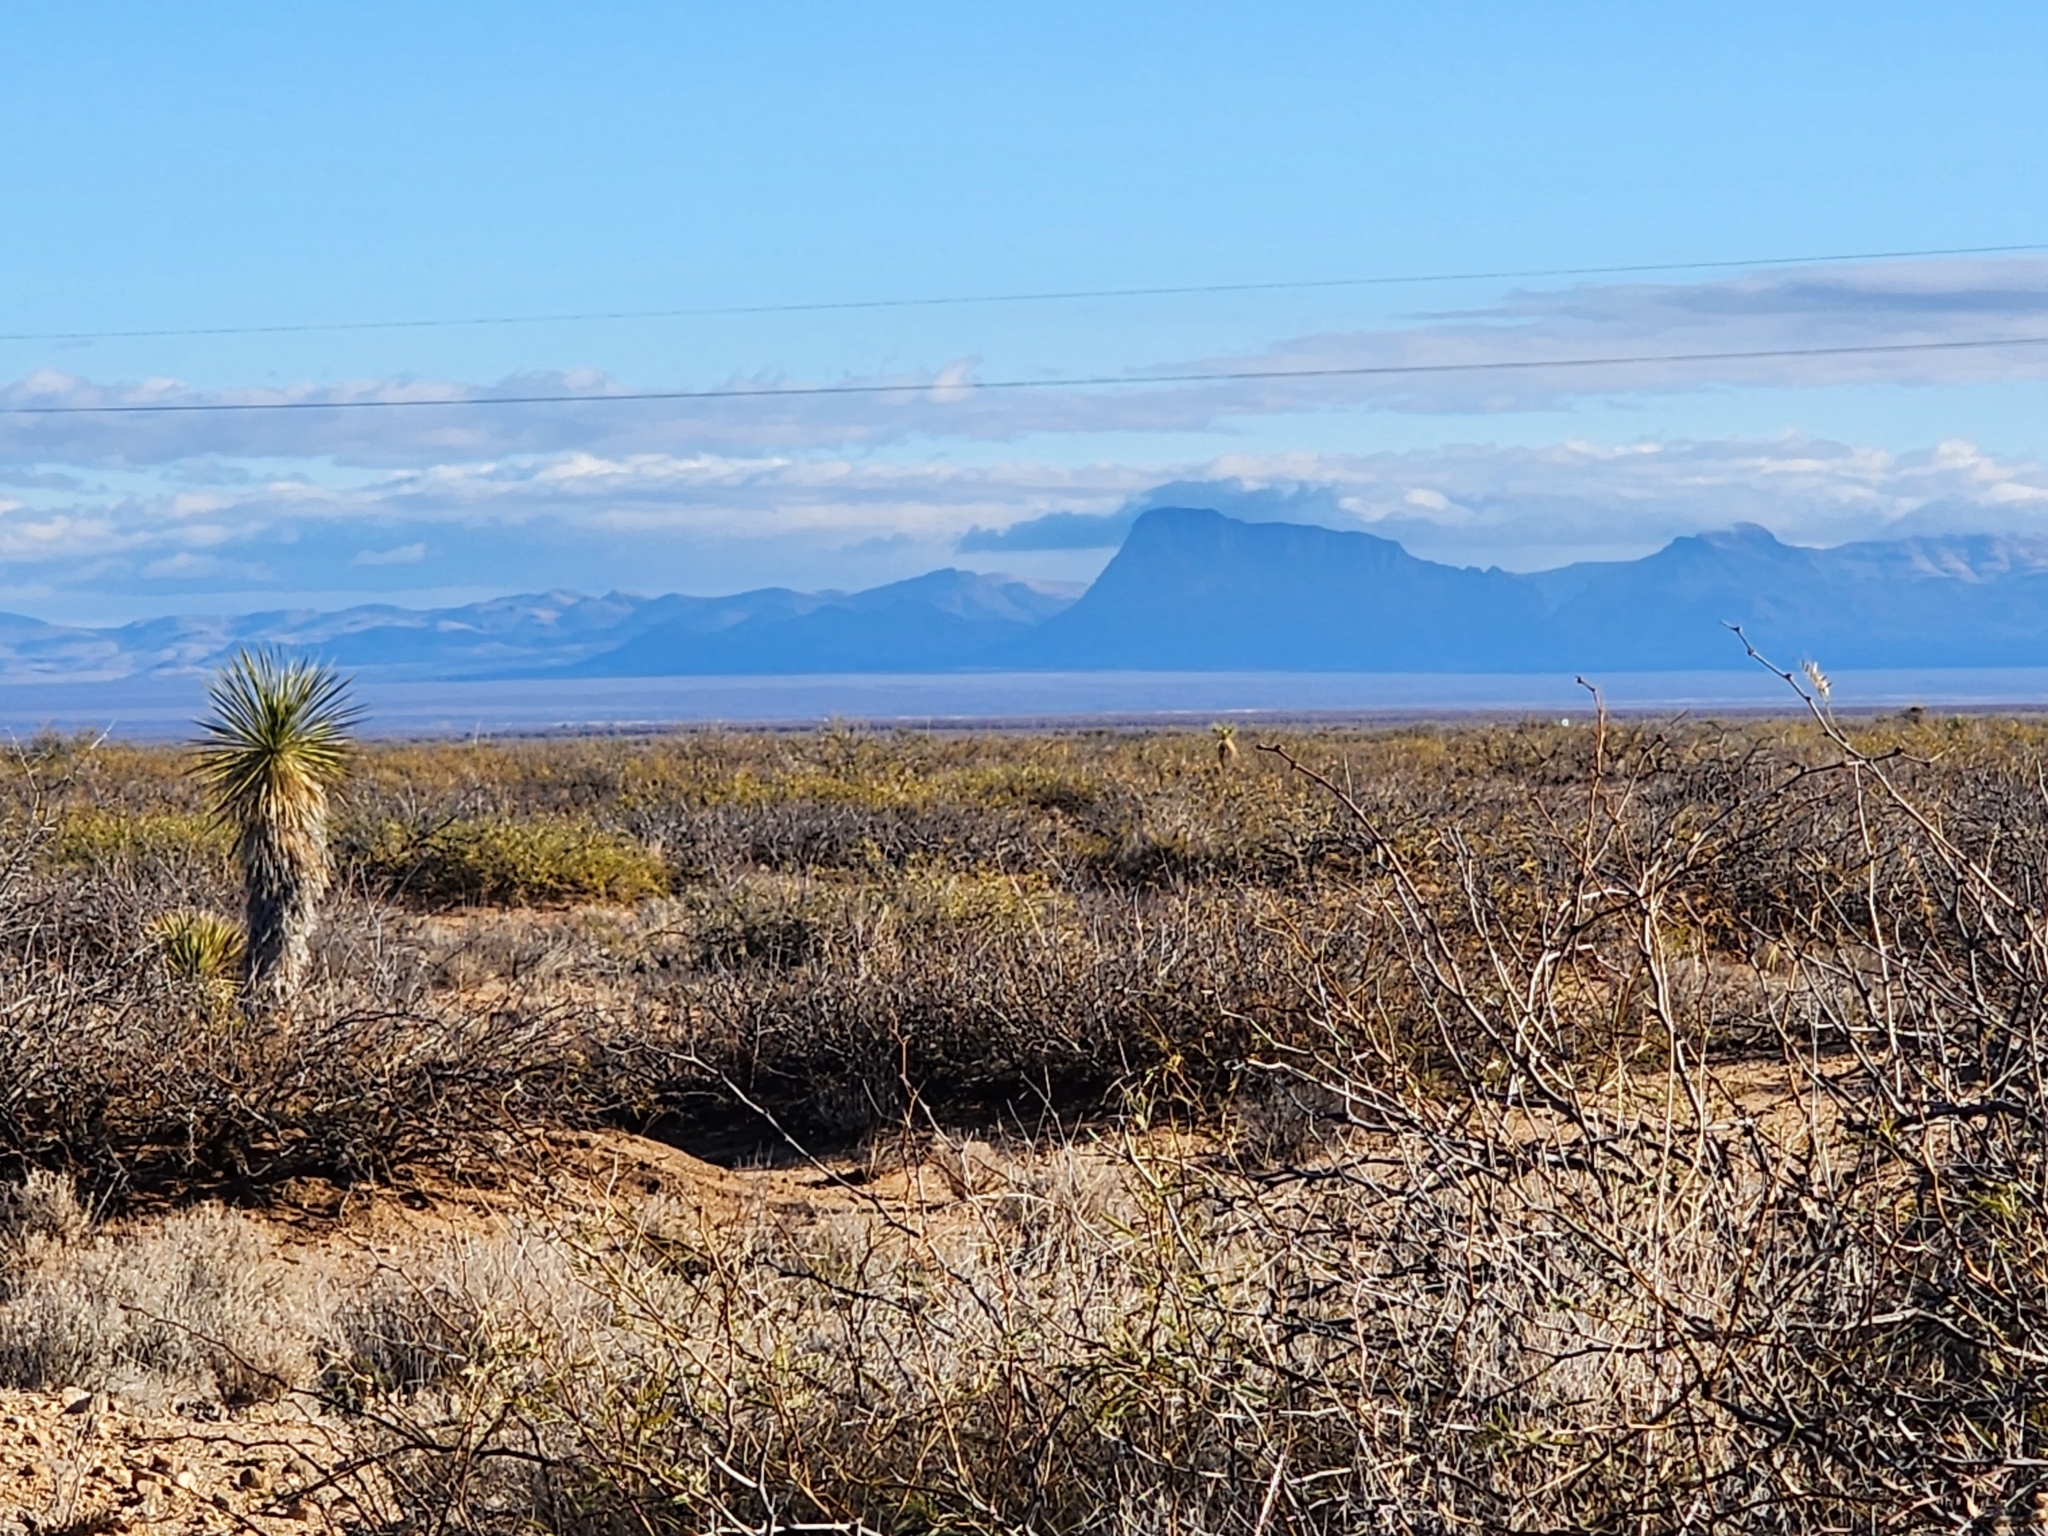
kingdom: Plantae
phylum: Tracheophyta
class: Liliopsida
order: Asparagales
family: Asparagaceae
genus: Yucca
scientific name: Yucca elata
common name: Palmella
